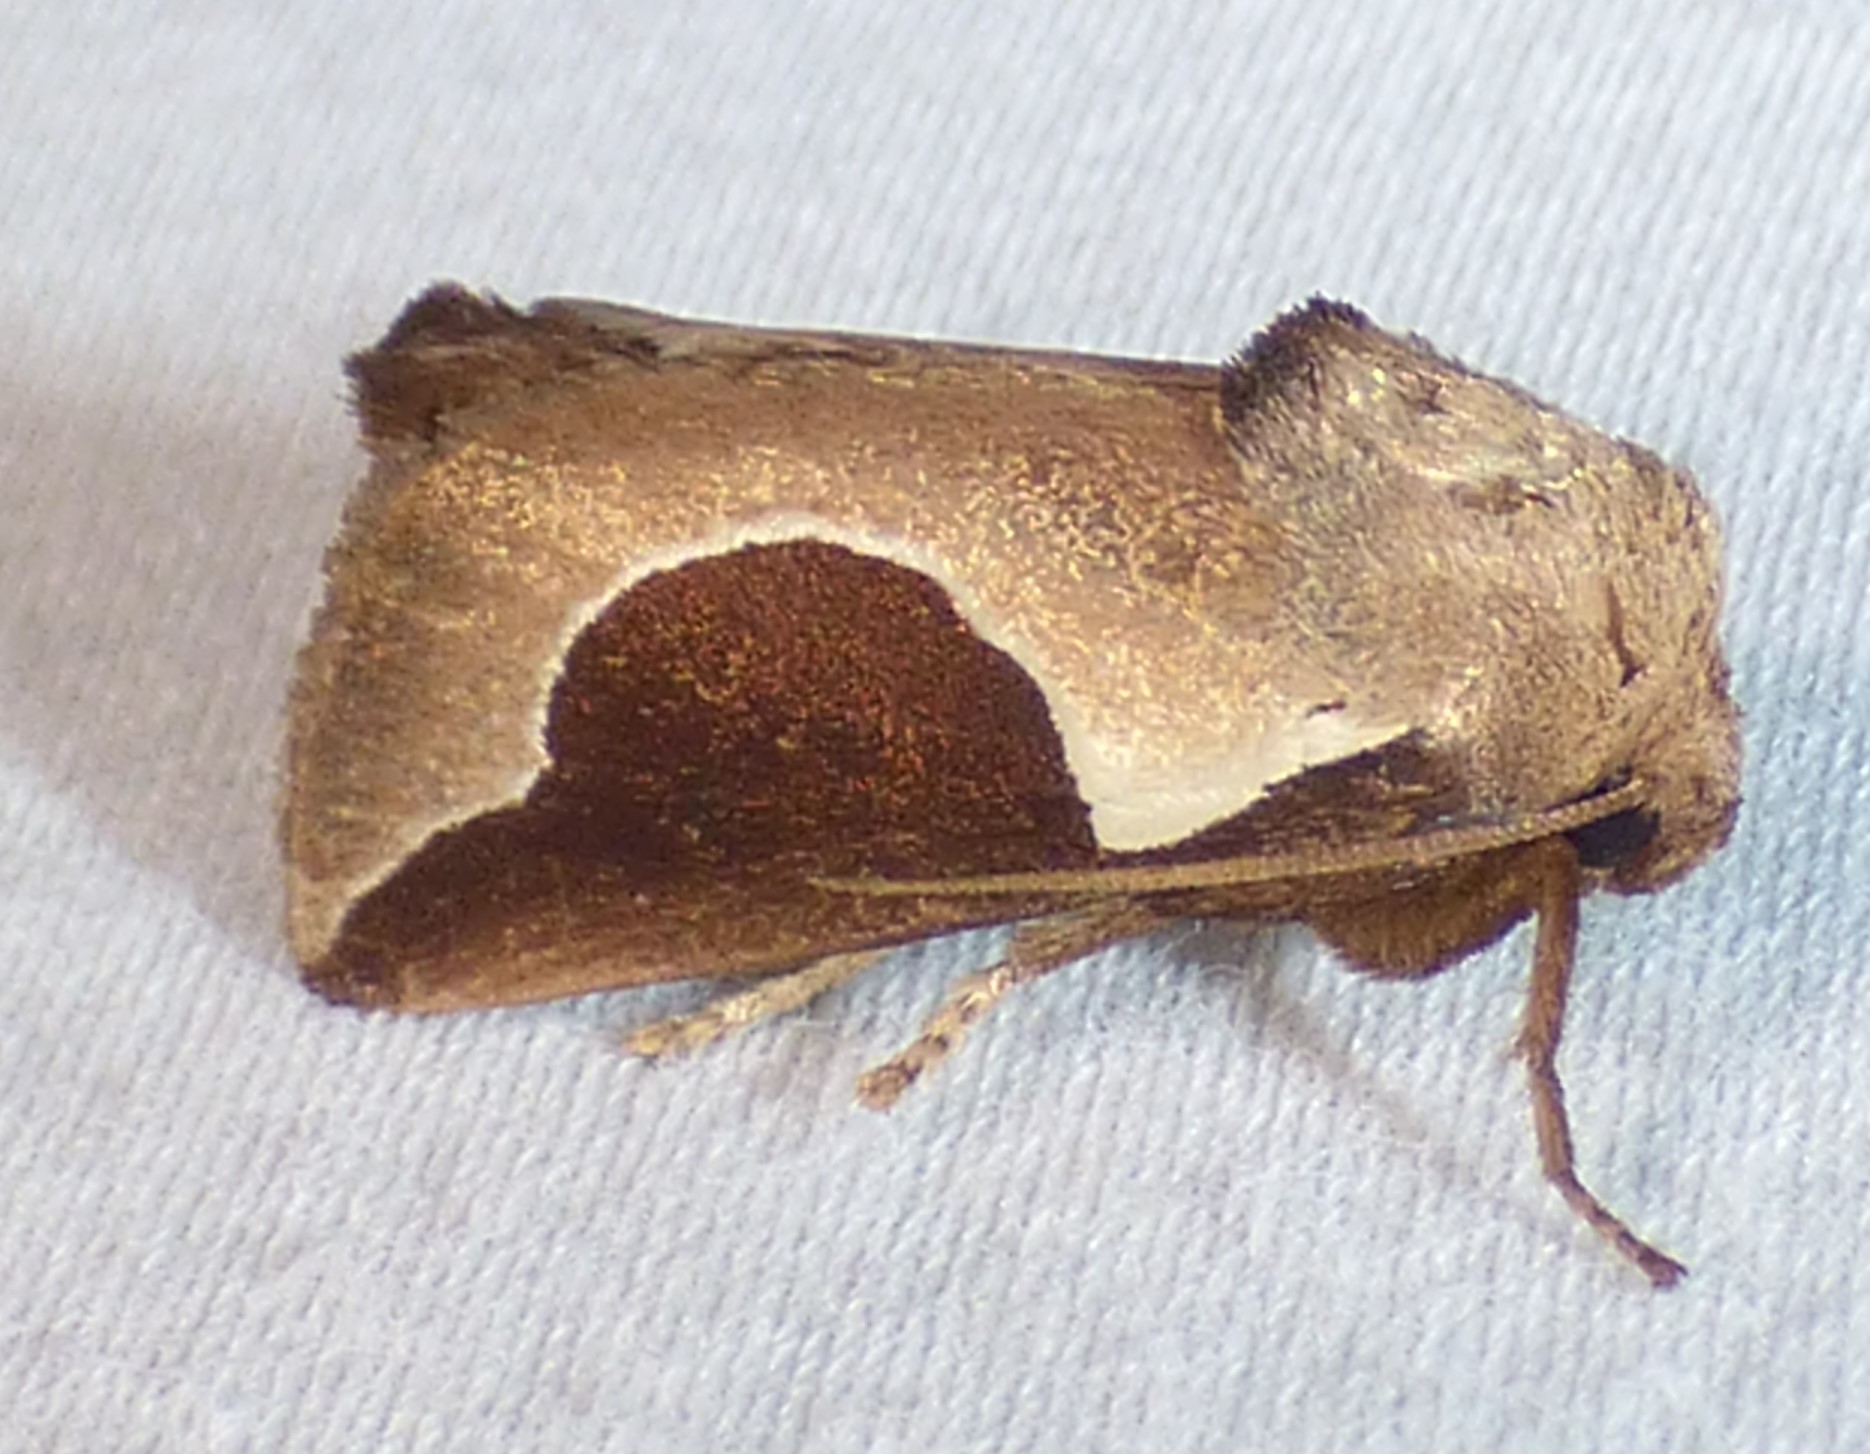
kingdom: Animalia
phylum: Arthropoda
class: Insecta
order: Lepidoptera
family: Limacodidae
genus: Prolimacodes
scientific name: Prolimacodes badia
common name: Skiff moth
